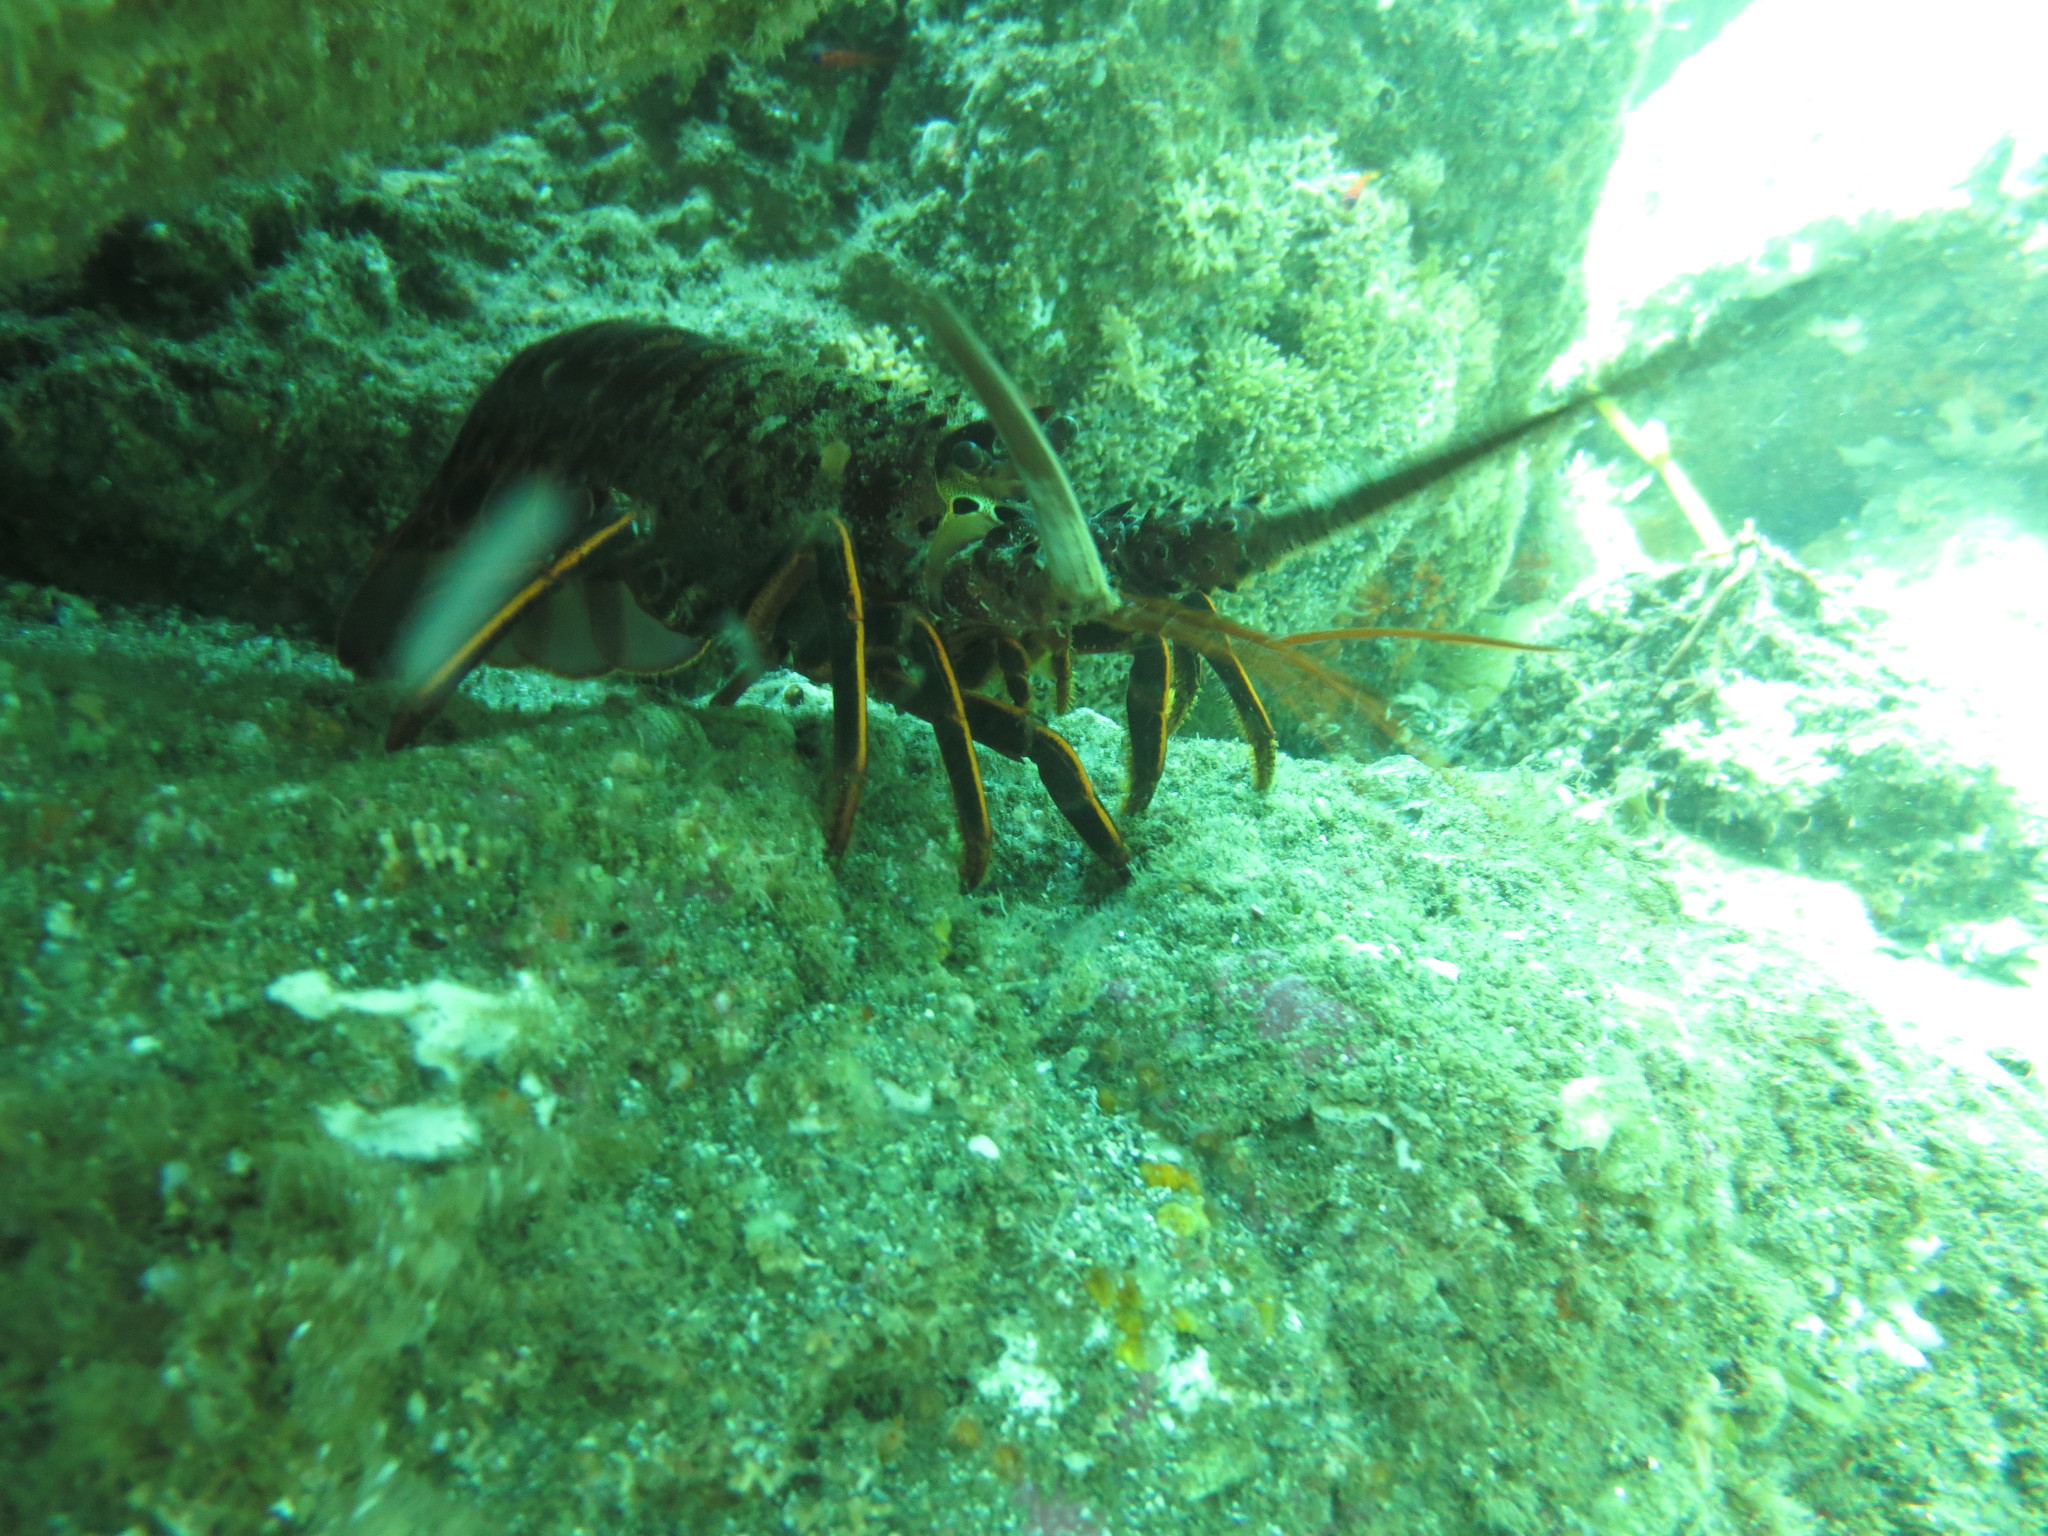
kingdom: Animalia
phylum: Arthropoda
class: Malacostraca
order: Decapoda
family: Palinuridae
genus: Panulirus
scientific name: Panulirus interruptus
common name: California spiny lobster
